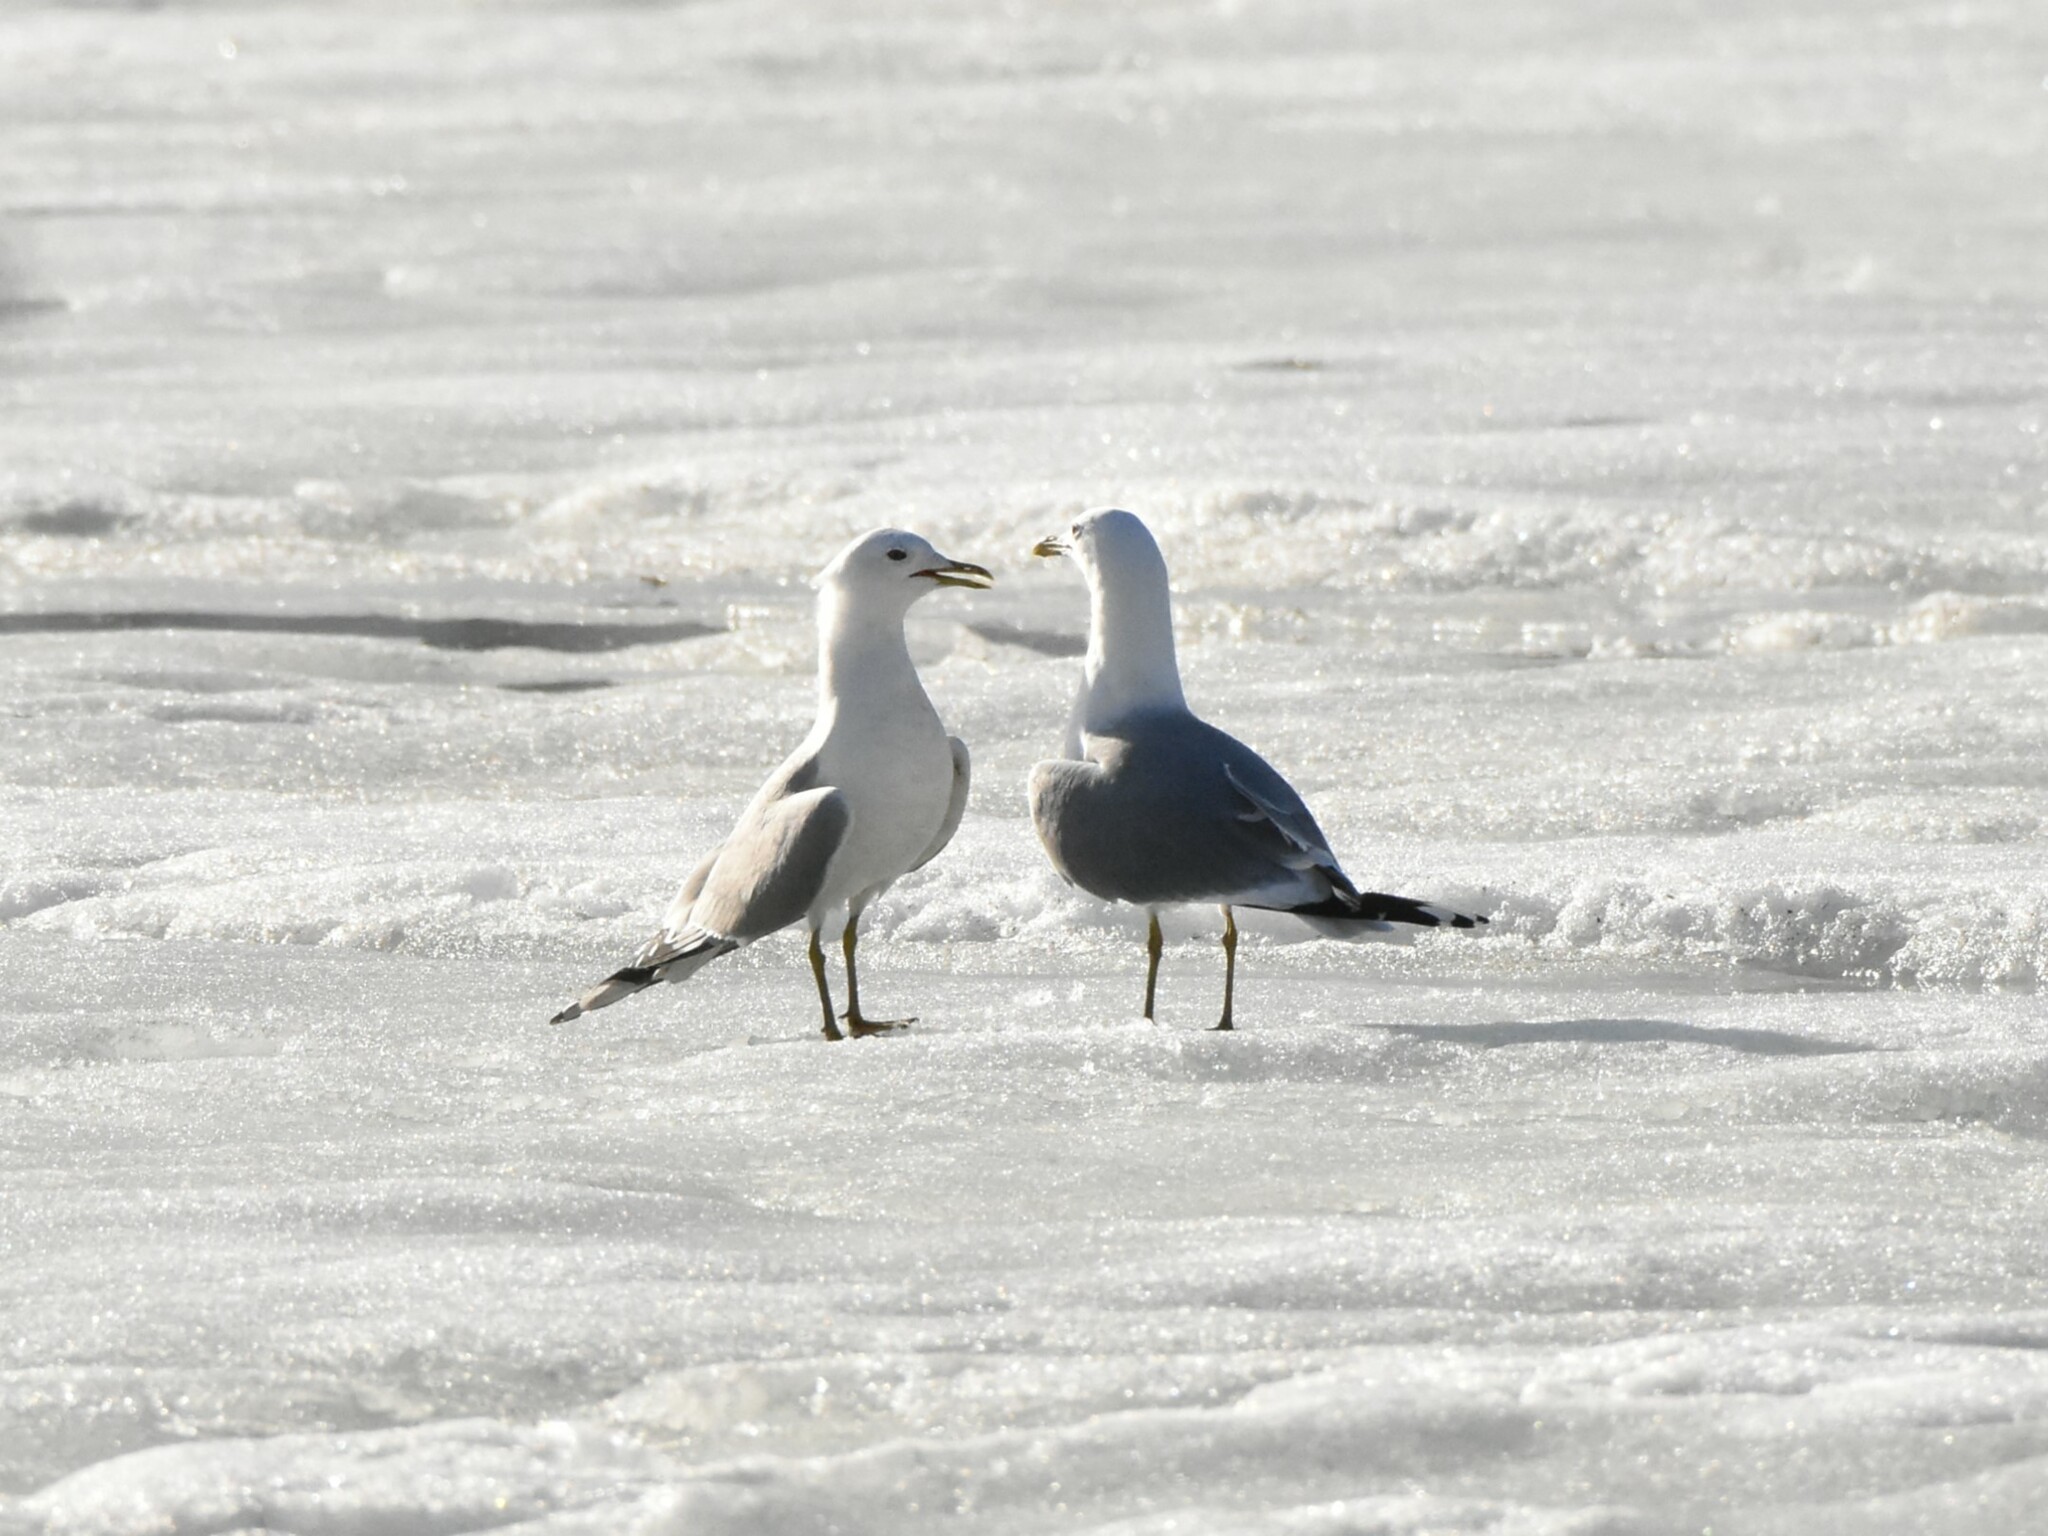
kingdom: Animalia
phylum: Chordata
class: Aves
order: Charadriiformes
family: Laridae
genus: Larus
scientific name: Larus canus
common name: Mew gull
